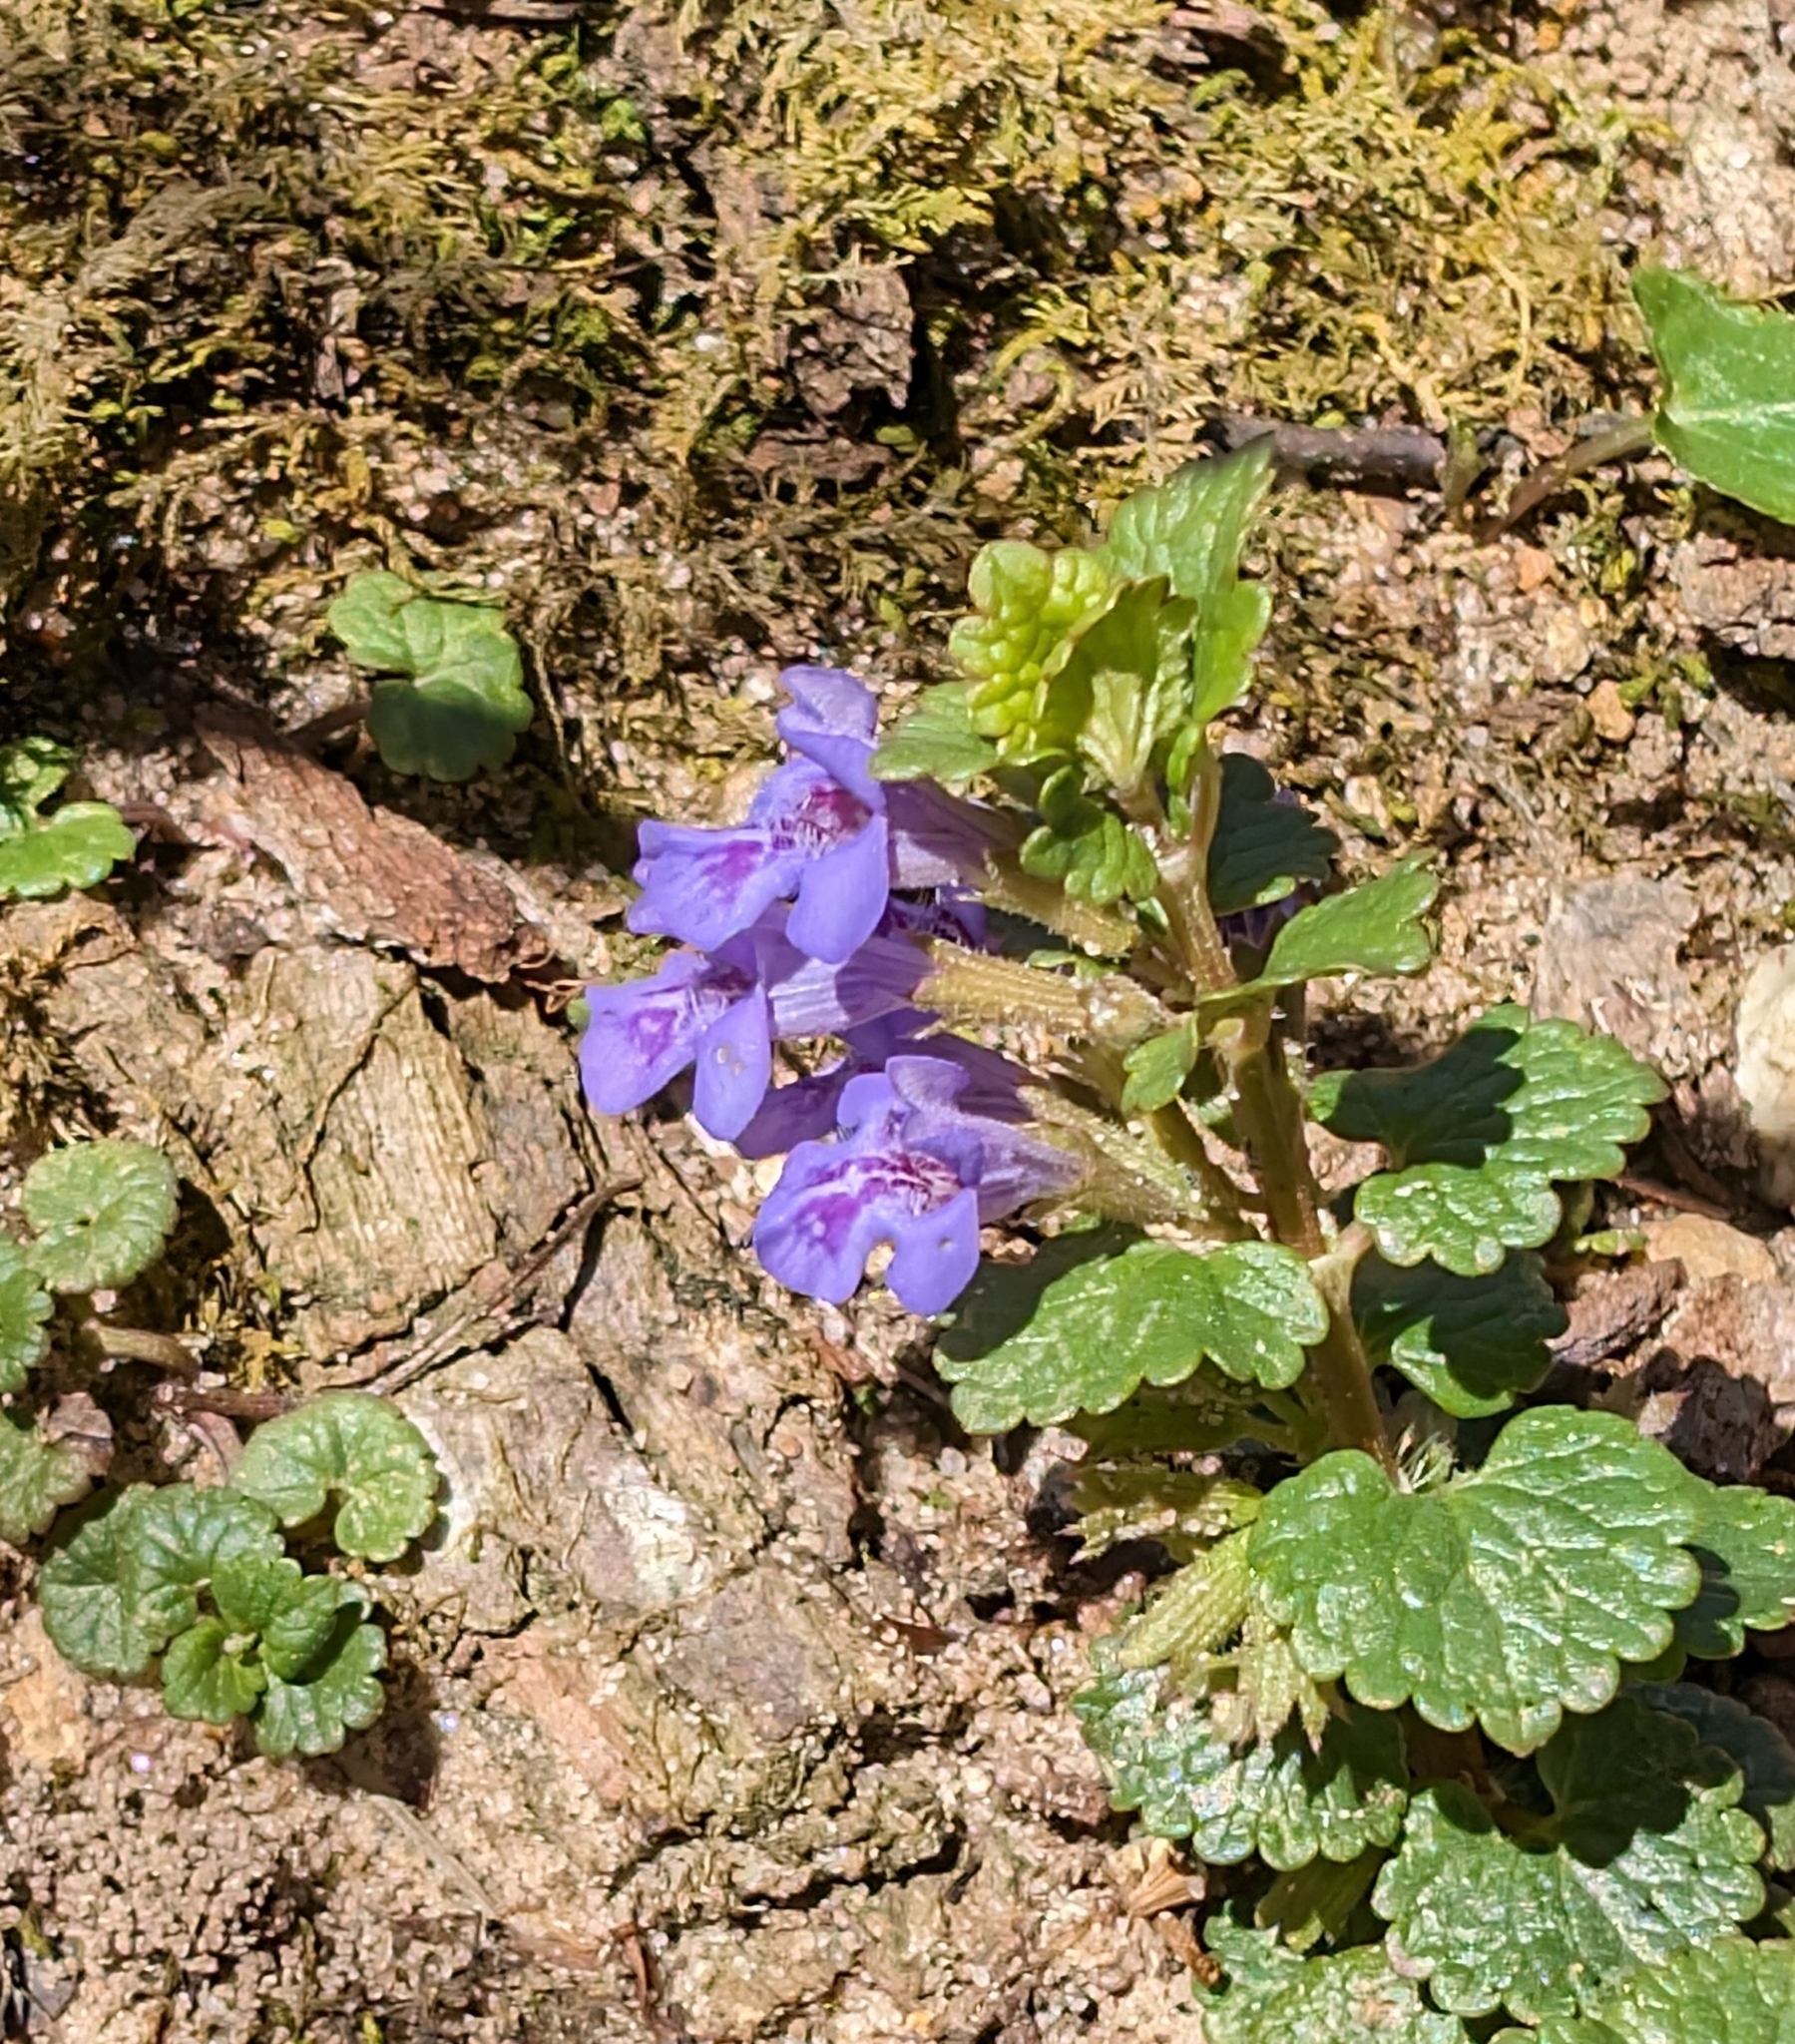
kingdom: Plantae
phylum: Tracheophyta
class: Magnoliopsida
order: Lamiales
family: Lamiaceae
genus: Glechoma
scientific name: Glechoma hederacea
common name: Ground ivy
